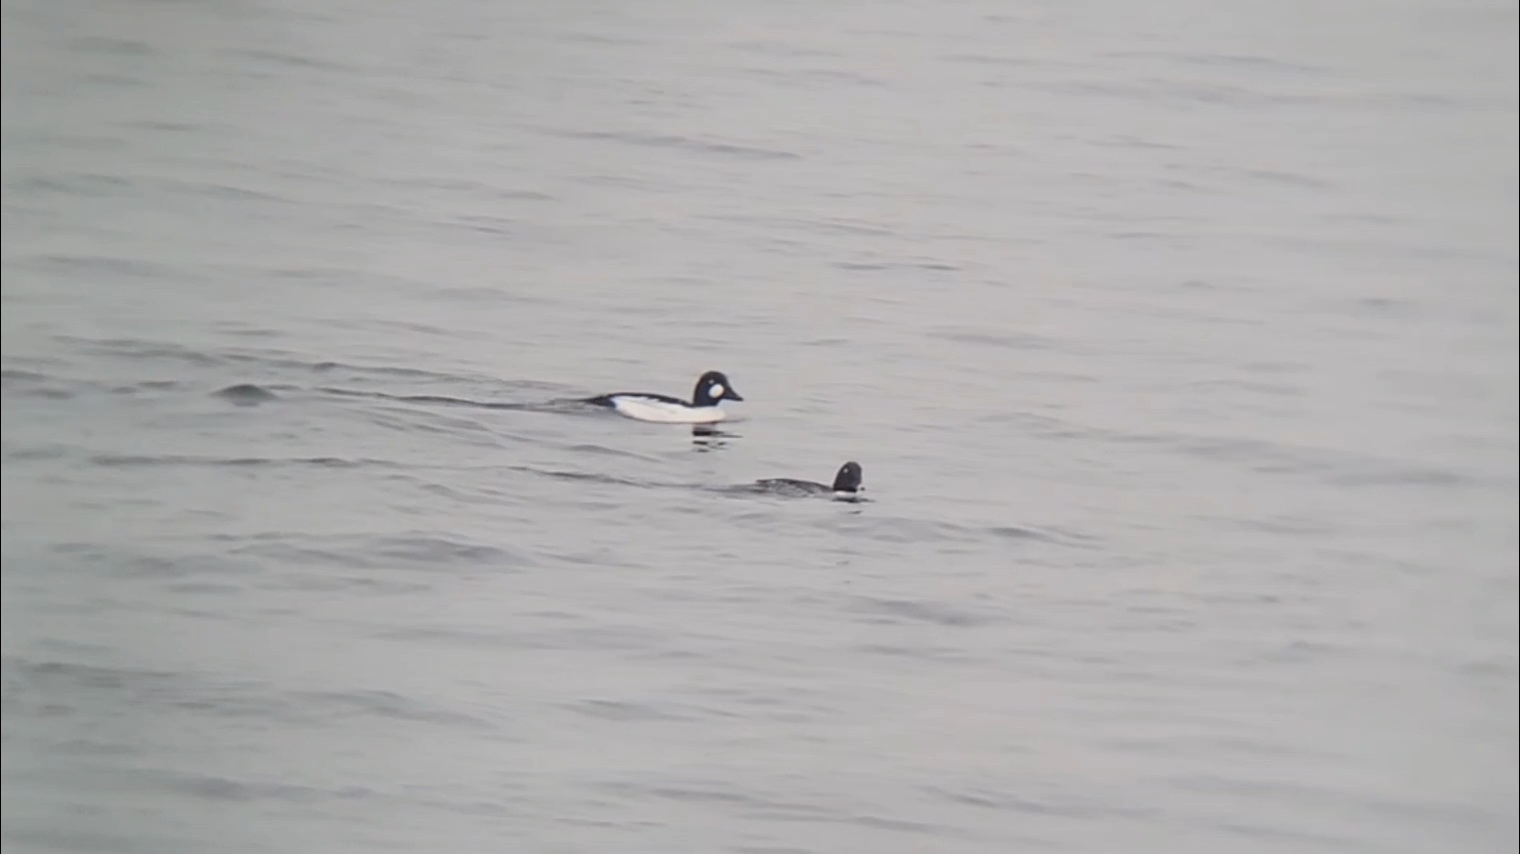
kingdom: Animalia
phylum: Chordata
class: Aves
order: Anseriformes
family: Anatidae
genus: Bucephala
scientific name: Bucephala clangula
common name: Common goldeneye
